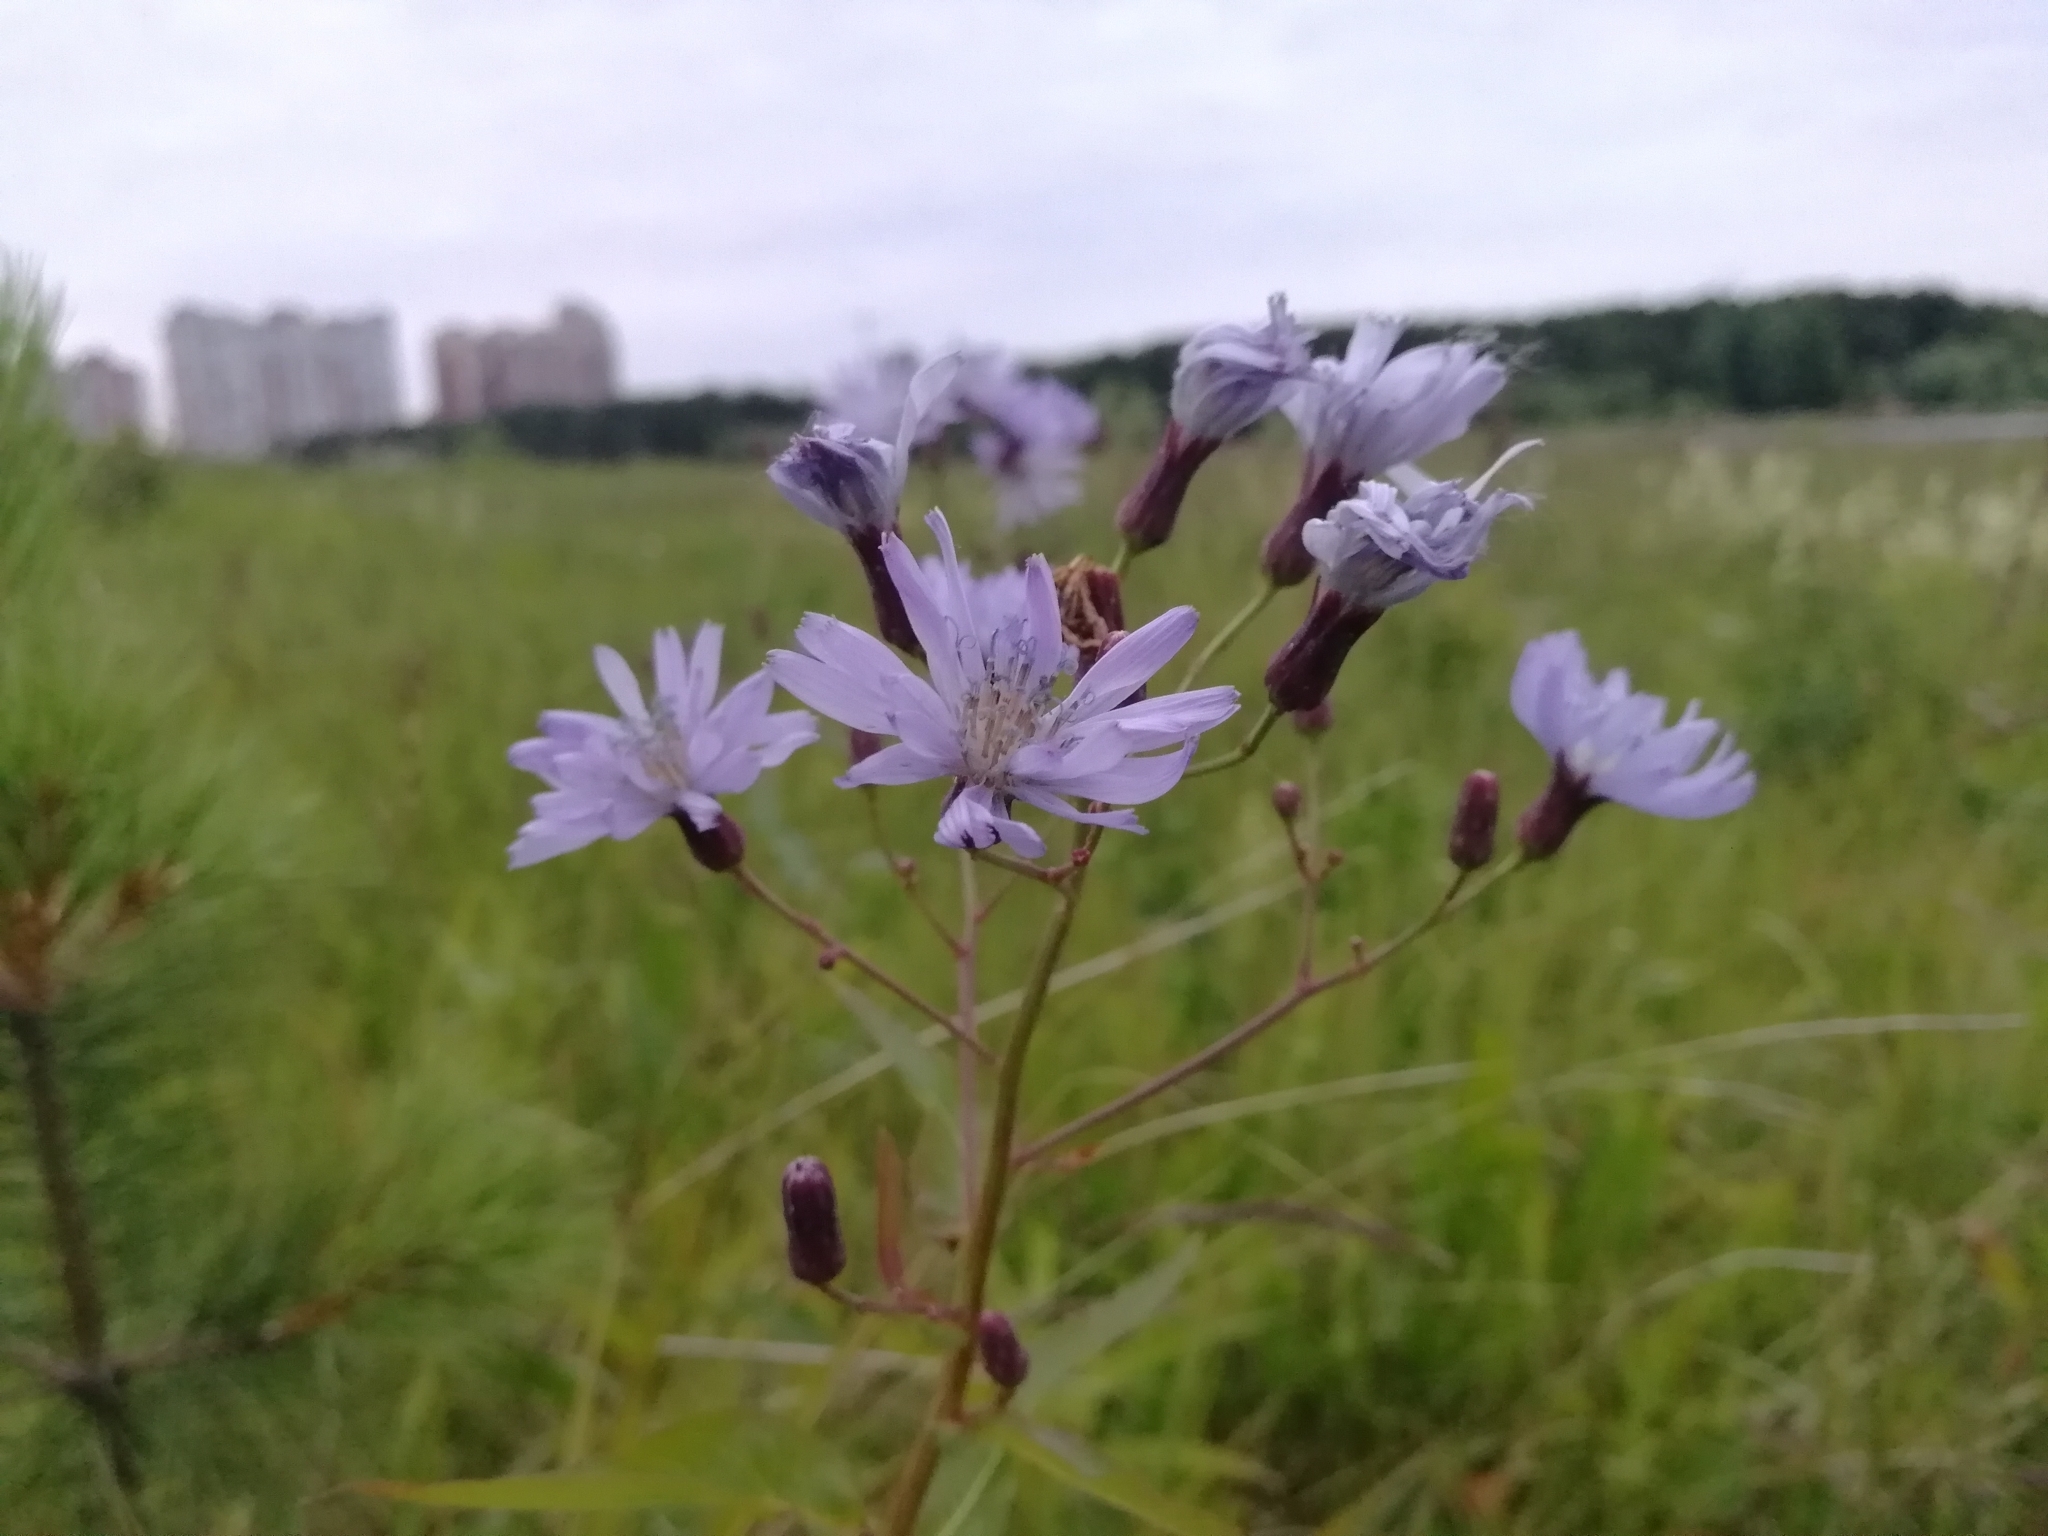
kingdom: Plantae
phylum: Tracheophyta
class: Magnoliopsida
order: Asterales
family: Asteraceae
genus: Lactuca
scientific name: Lactuca sibirica
